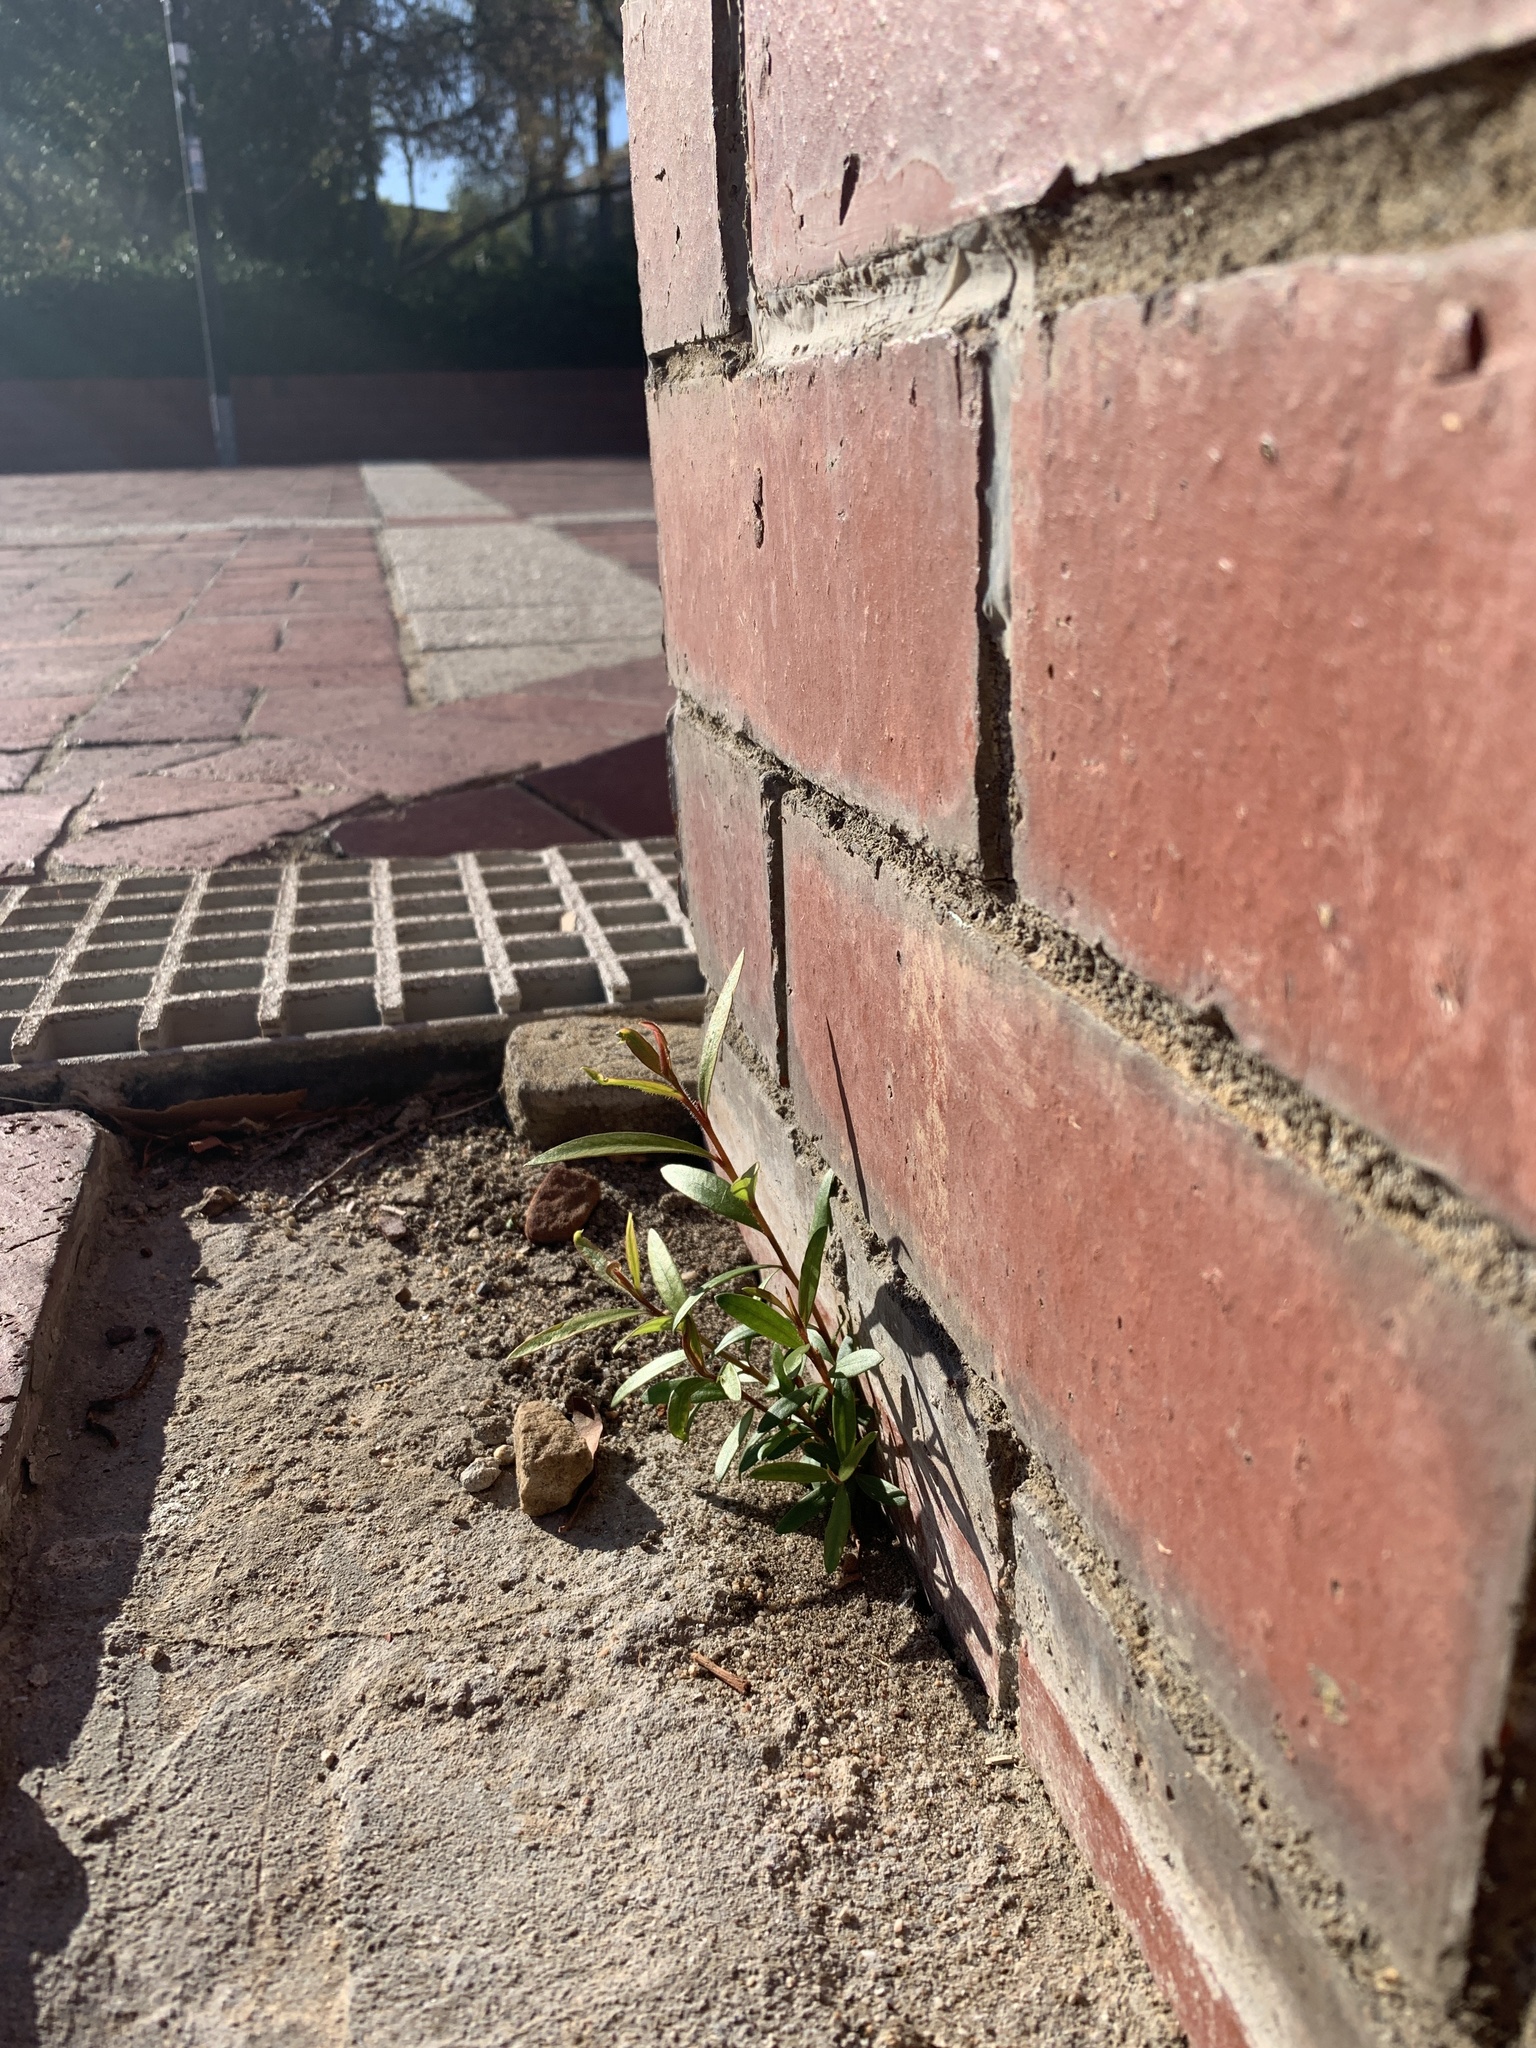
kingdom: Plantae
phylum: Tracheophyta
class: Magnoliopsida
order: Myrtales
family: Myrtaceae
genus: Callistemon
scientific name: Callistemon viminalis
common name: Drooping bottlebrush
